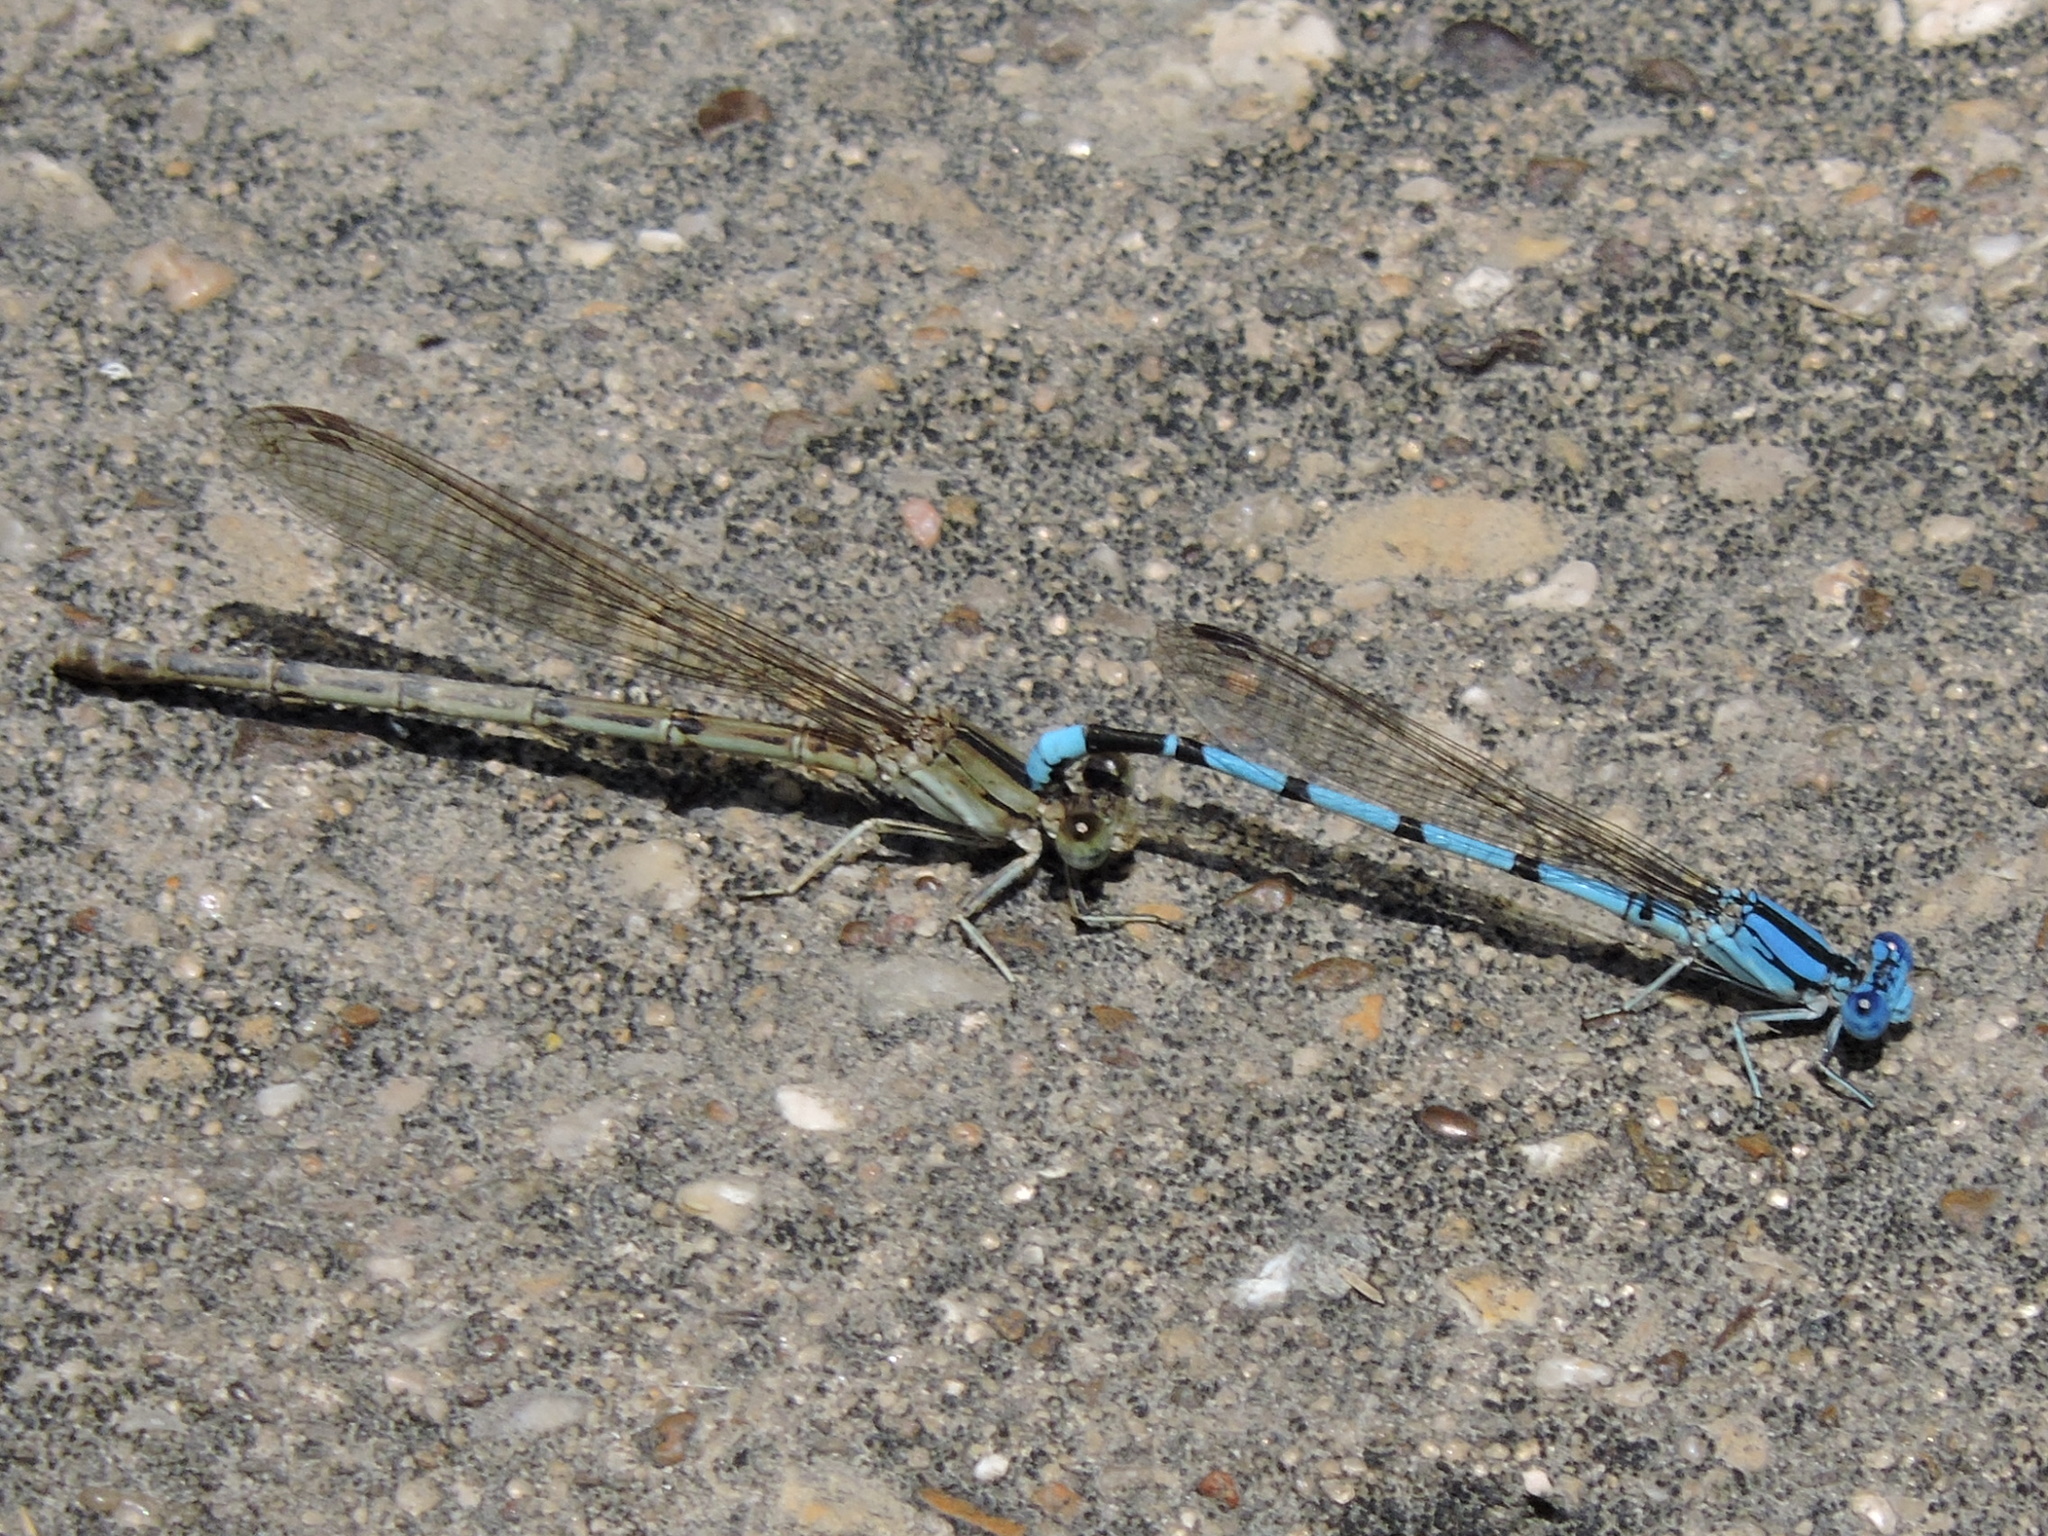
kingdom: Animalia
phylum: Arthropoda
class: Insecta
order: Odonata
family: Coenagrionidae
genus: Argia
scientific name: Argia nahuana
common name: Aztec dancer
